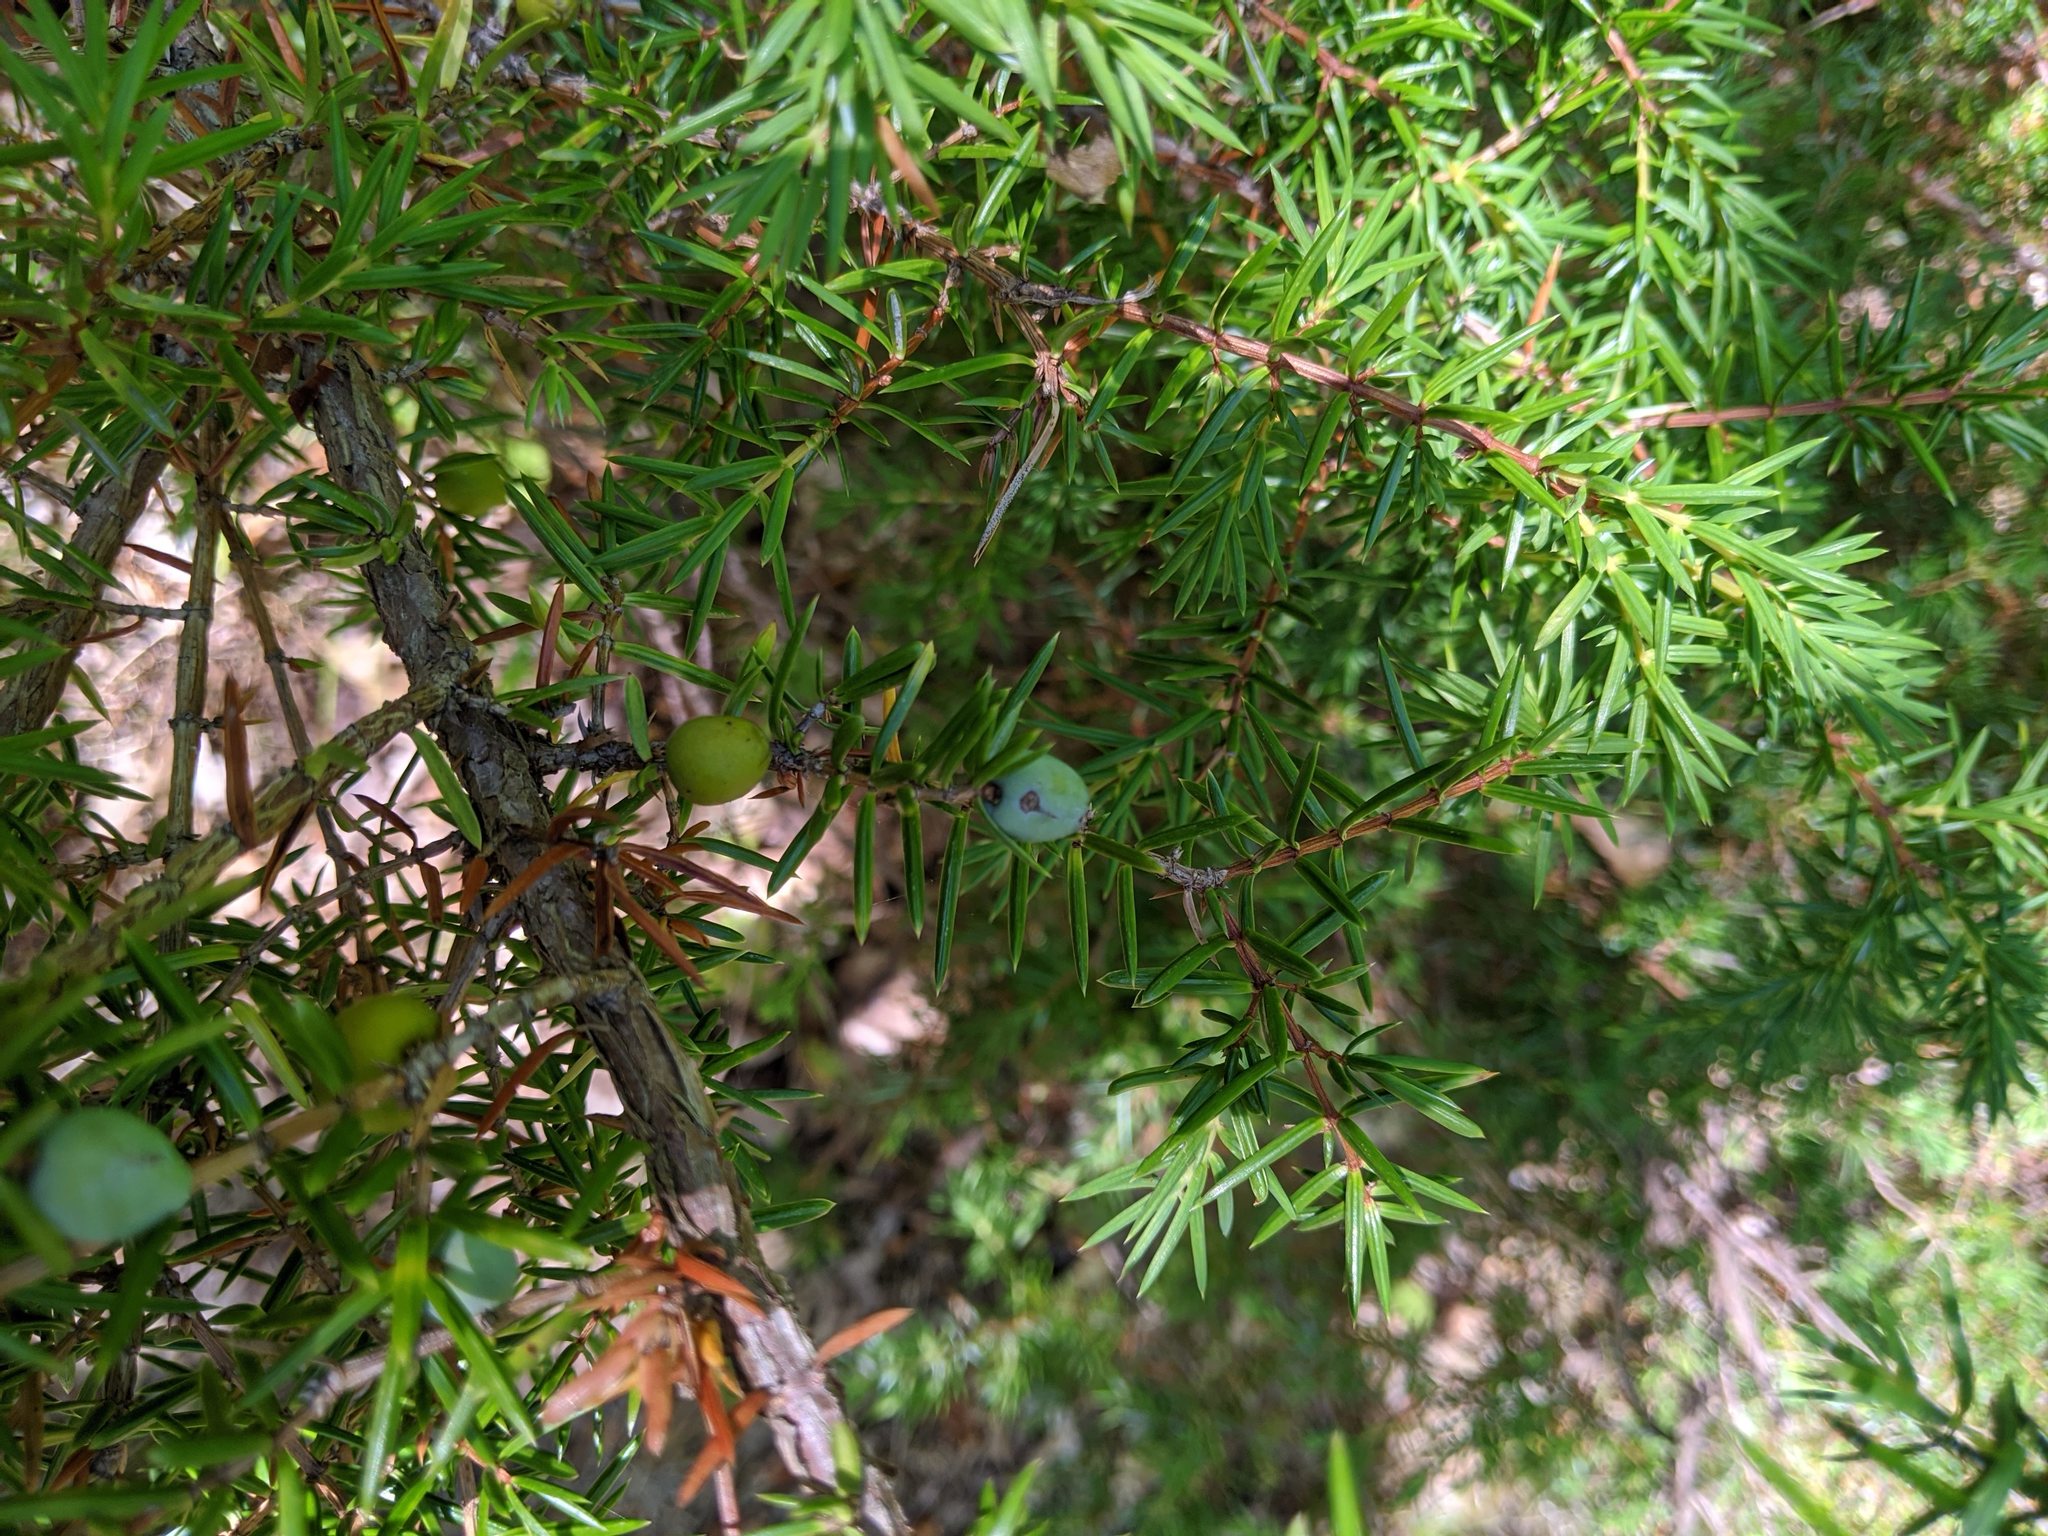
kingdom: Plantae
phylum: Tracheophyta
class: Pinopsida
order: Pinales
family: Cupressaceae
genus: Juniperus
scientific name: Juniperus communis
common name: Common juniper
